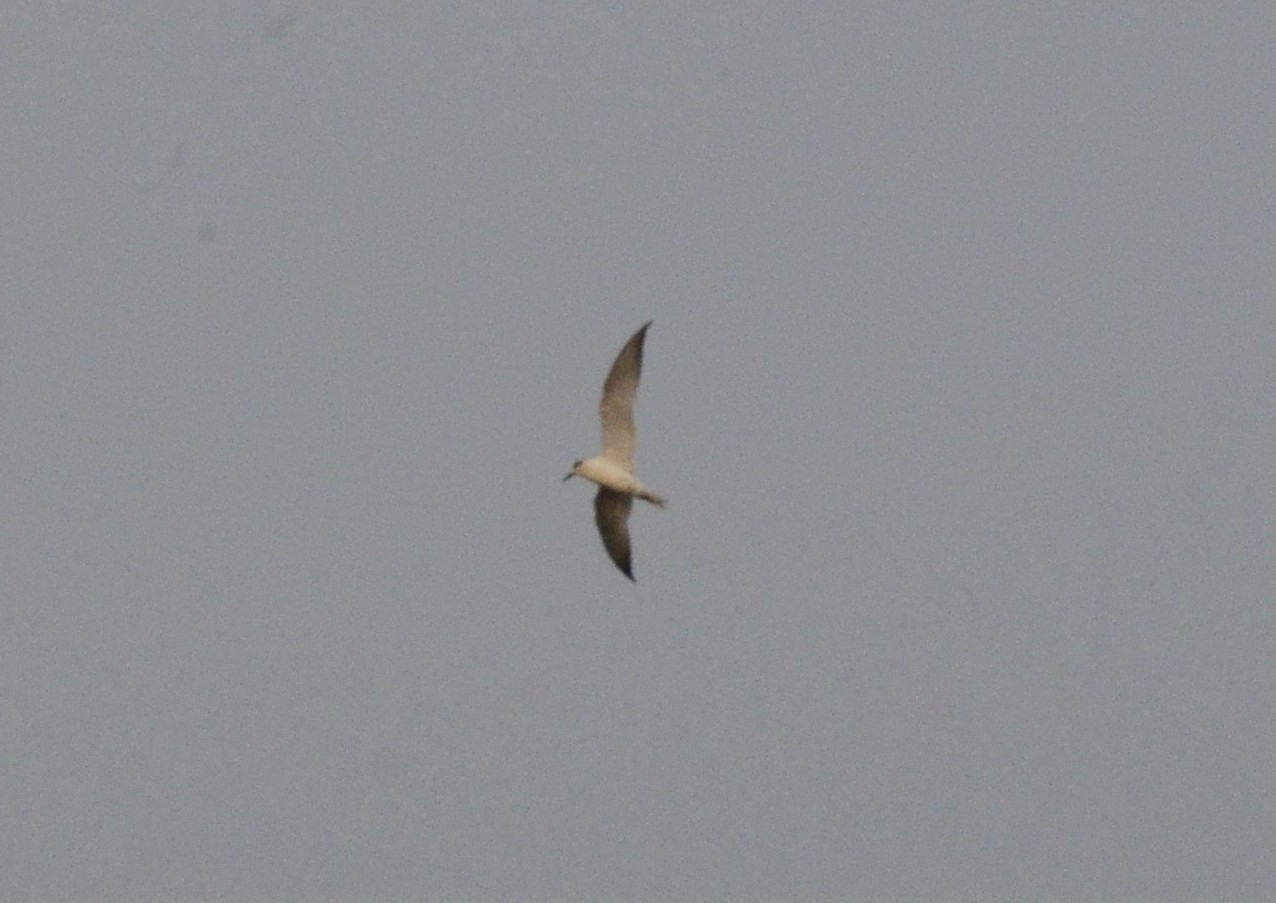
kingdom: Animalia
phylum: Chordata
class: Aves
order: Charadriiformes
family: Laridae
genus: Chlidonias
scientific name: Chlidonias hybrida
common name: Whiskered tern
